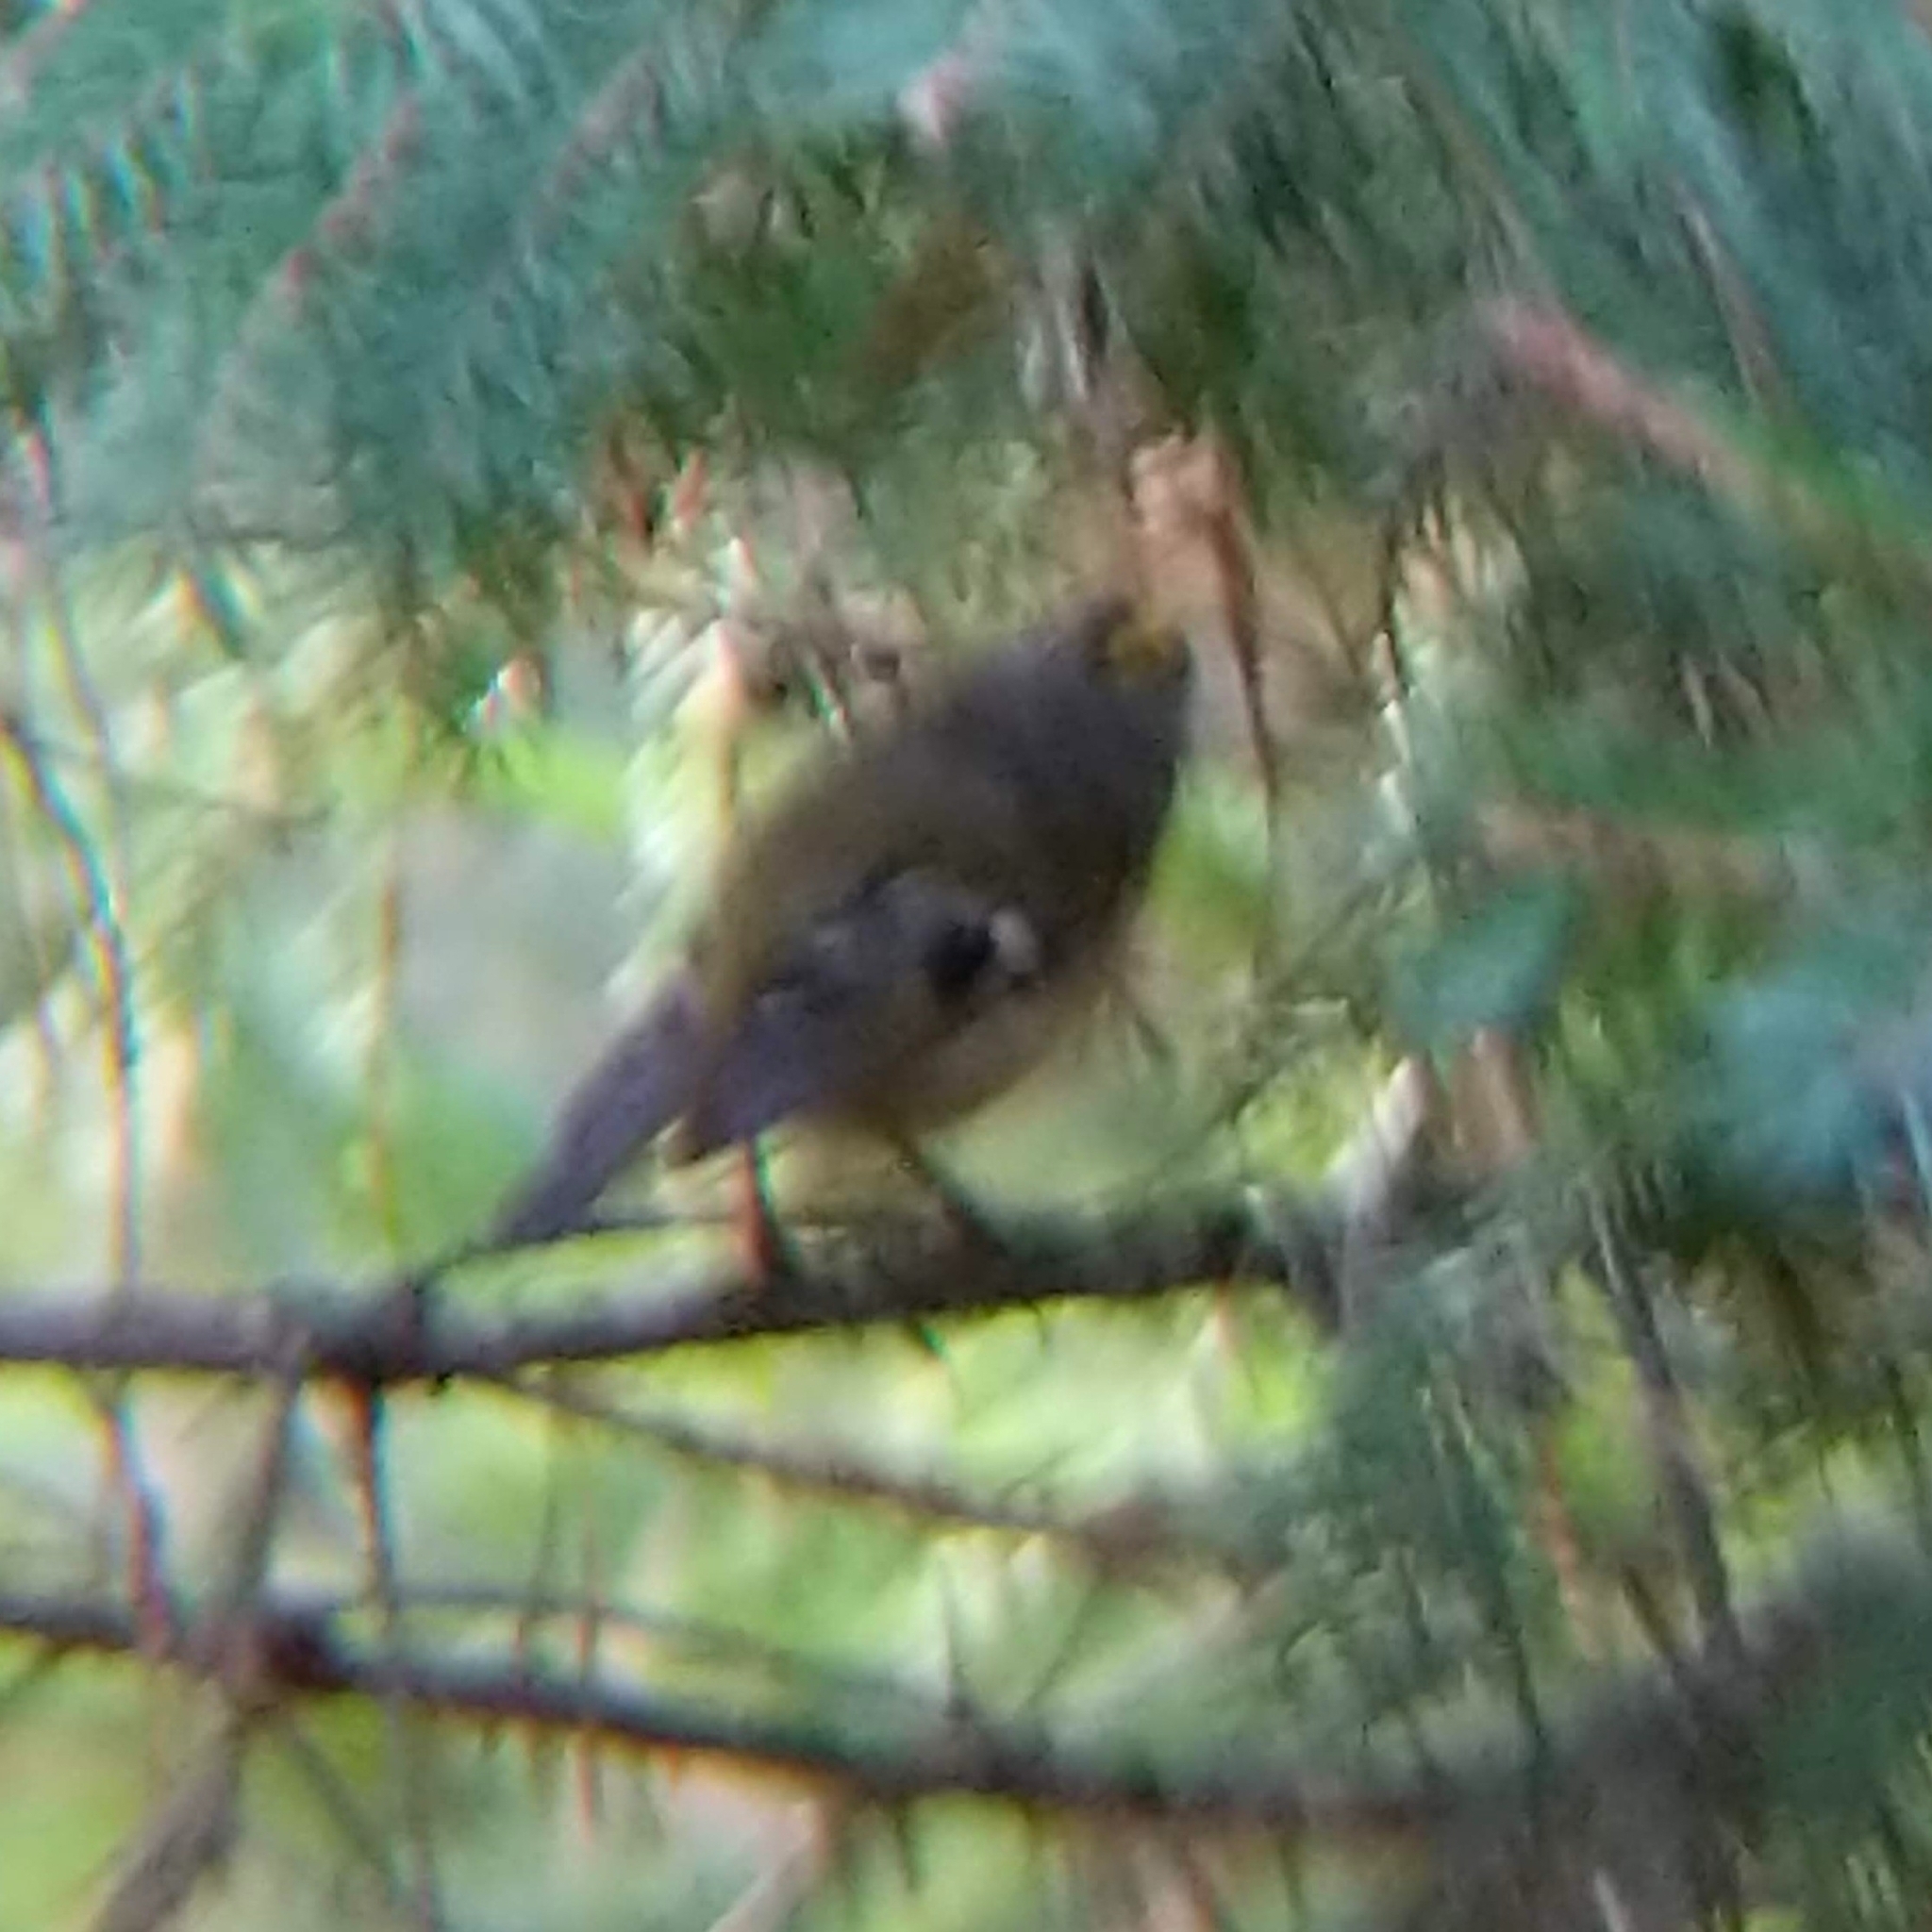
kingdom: Animalia
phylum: Chordata
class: Aves
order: Passeriformes
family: Regulidae
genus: Regulus
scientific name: Regulus regulus
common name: Goldcrest
